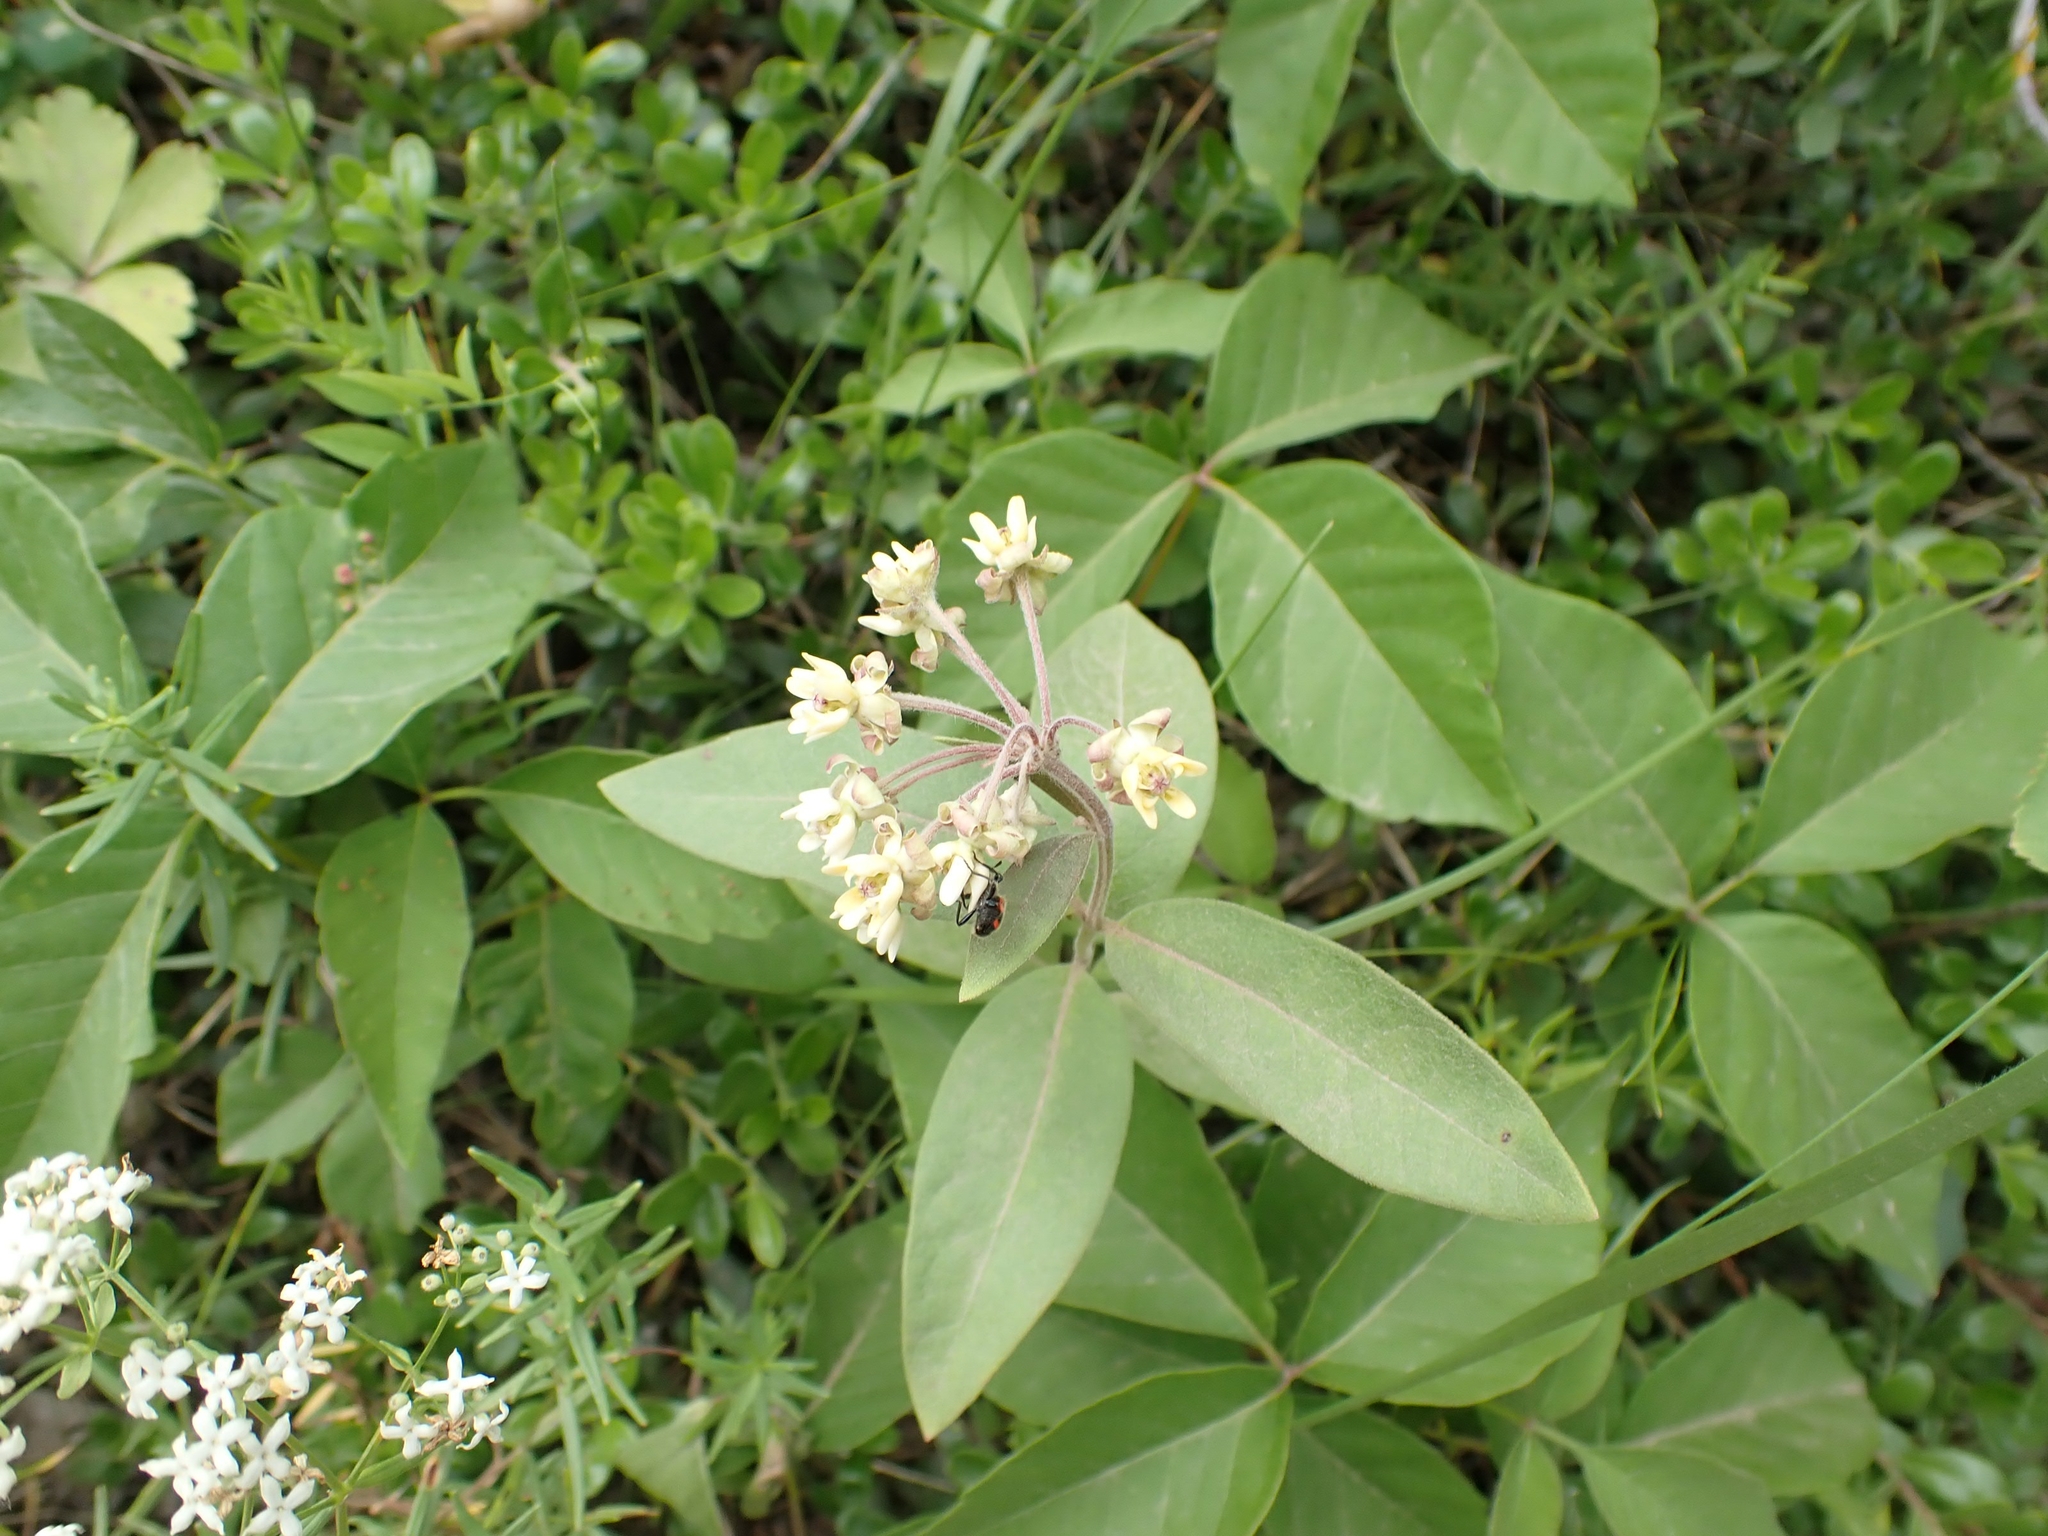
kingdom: Plantae
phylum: Tracheophyta
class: Magnoliopsida
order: Gentianales
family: Apocynaceae
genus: Asclepias
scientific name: Asclepias ovalifolia
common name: Dwarf milkweed
